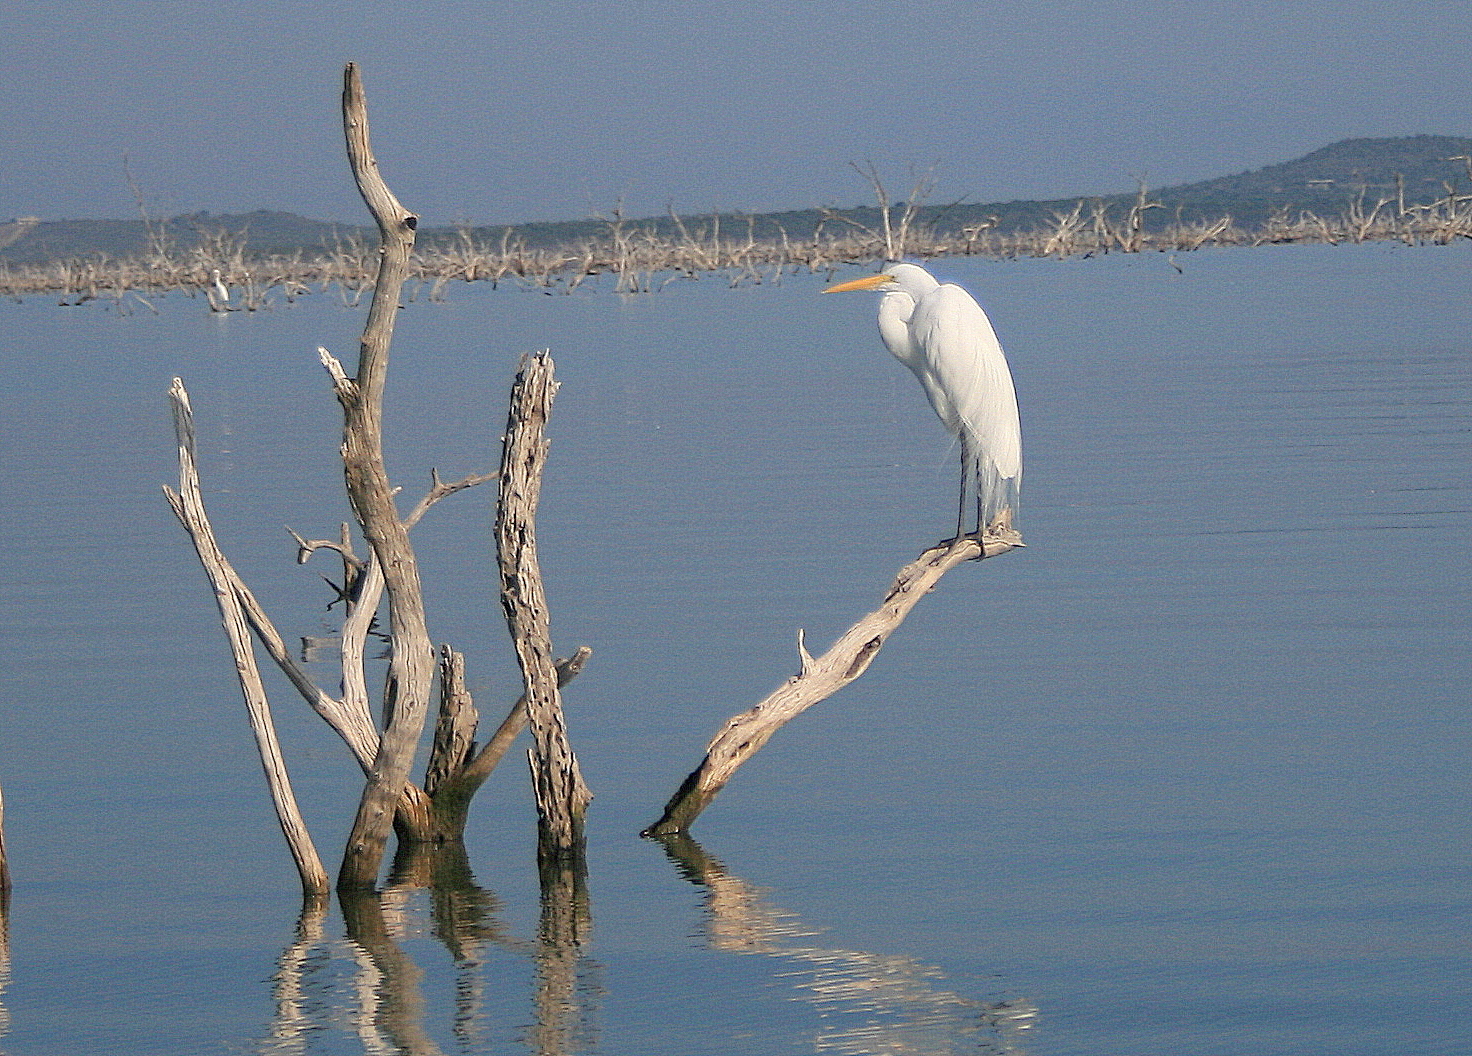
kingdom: Animalia
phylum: Chordata
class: Aves
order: Pelecaniformes
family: Ardeidae
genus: Ardea
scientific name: Ardea alba
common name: Great egret
